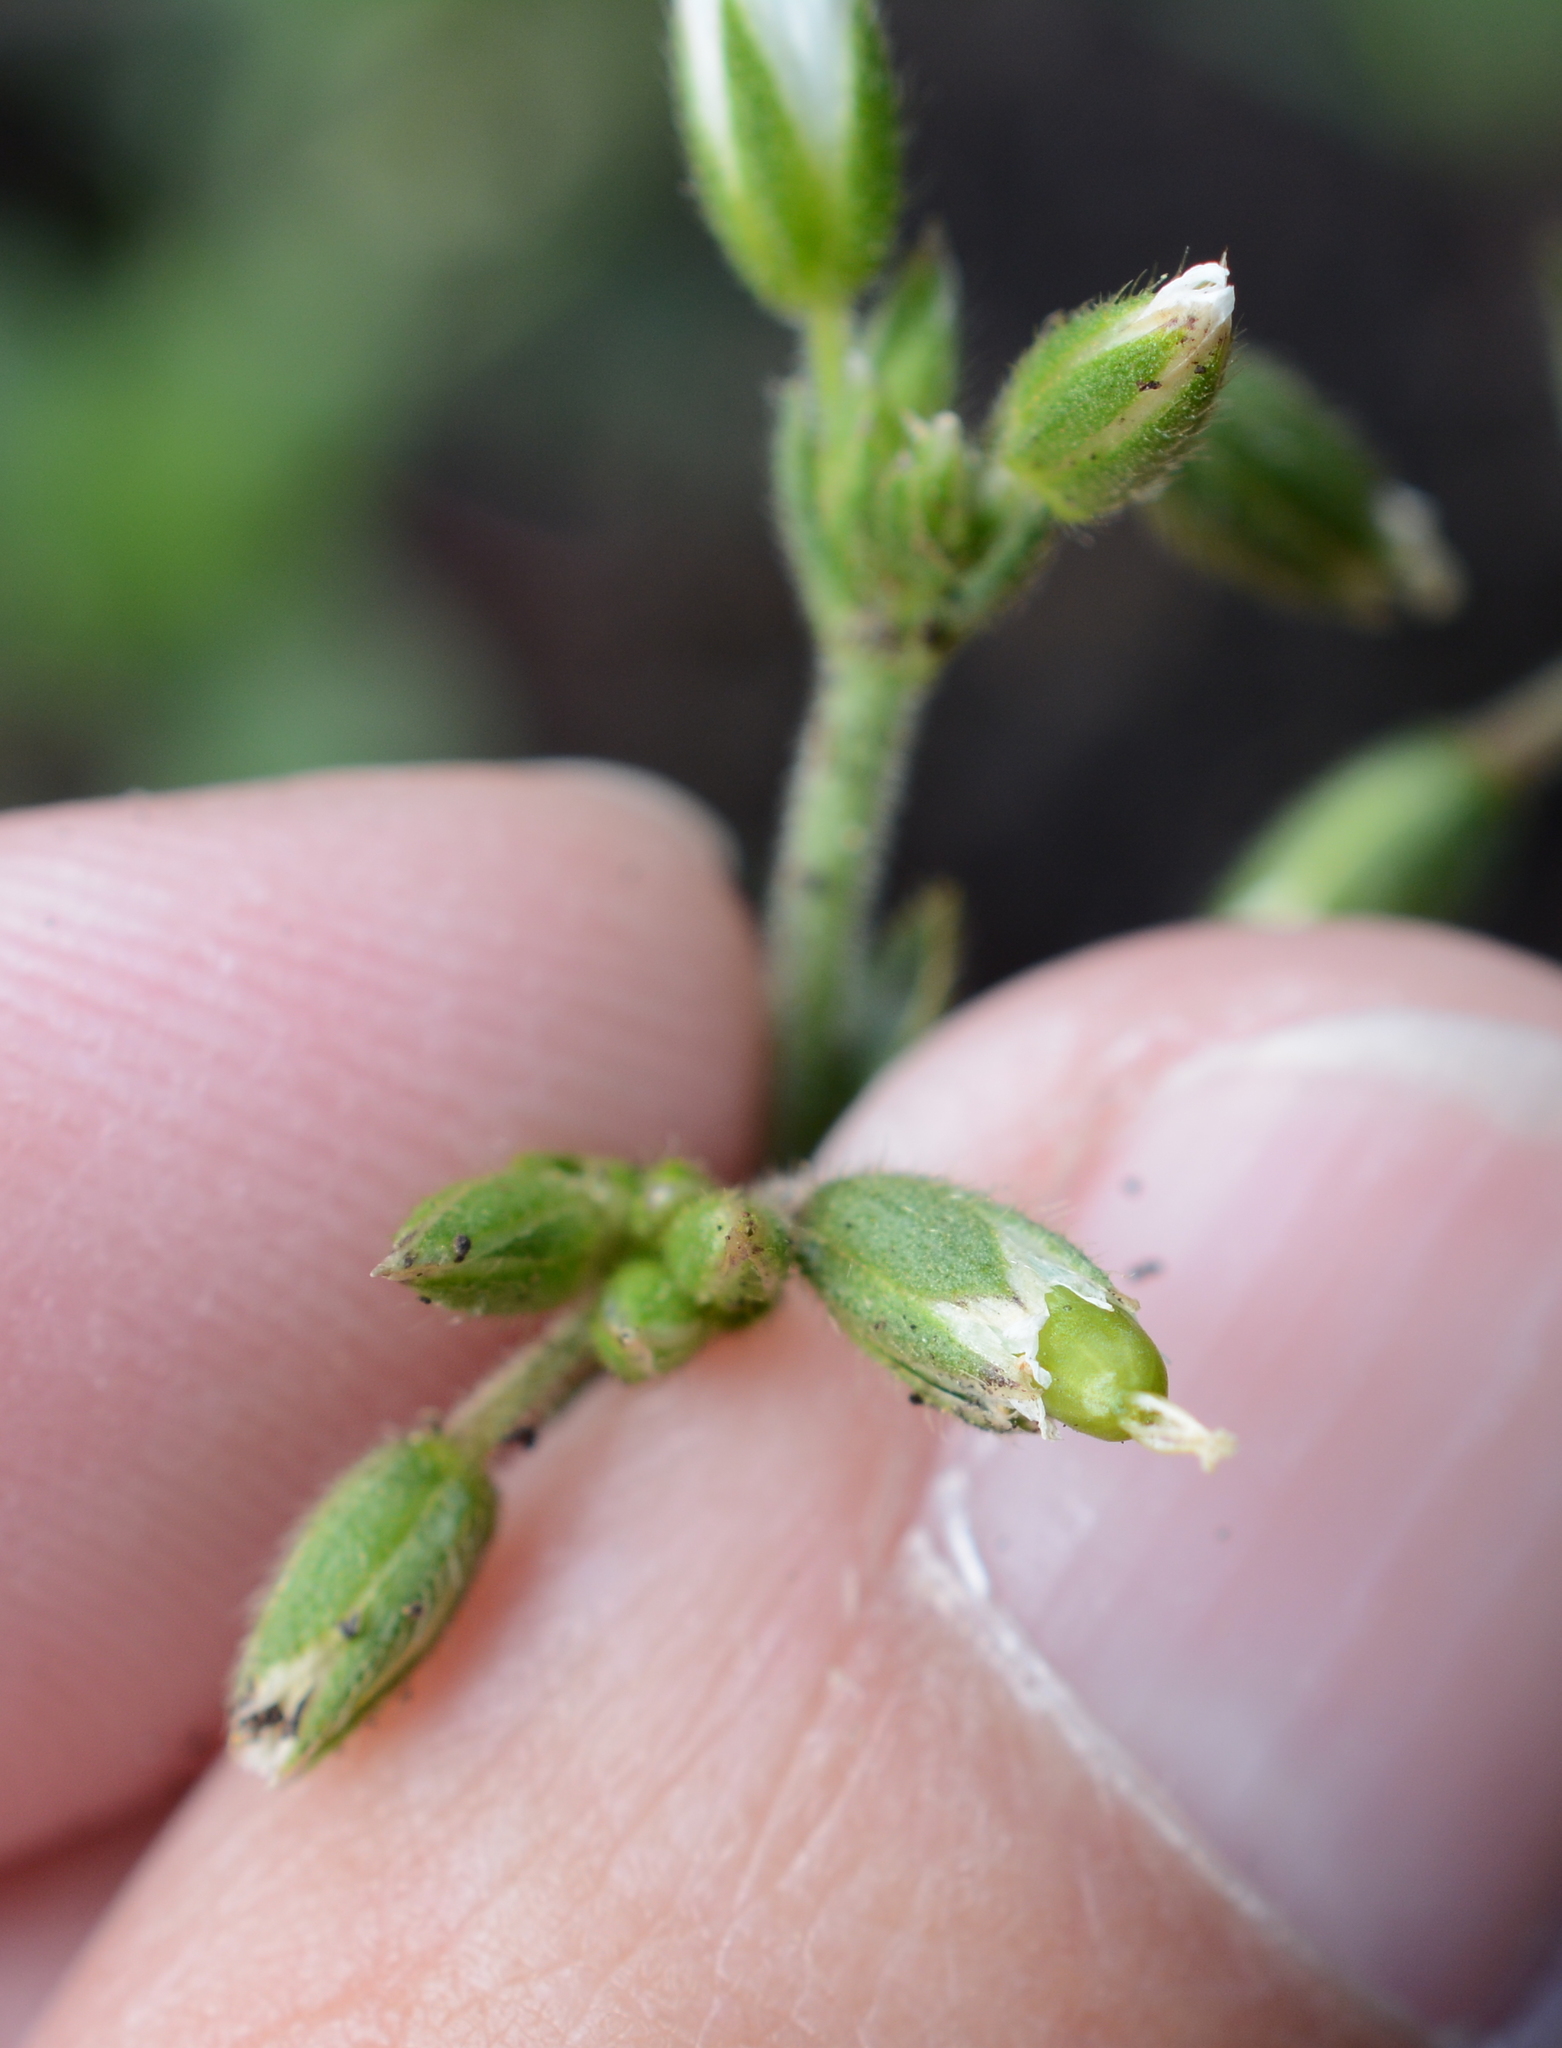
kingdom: Plantae
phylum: Tracheophyta
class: Magnoliopsida
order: Caryophyllales
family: Caryophyllaceae
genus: Cerastium
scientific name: Cerastium fontanum
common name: Common mouse-ear
